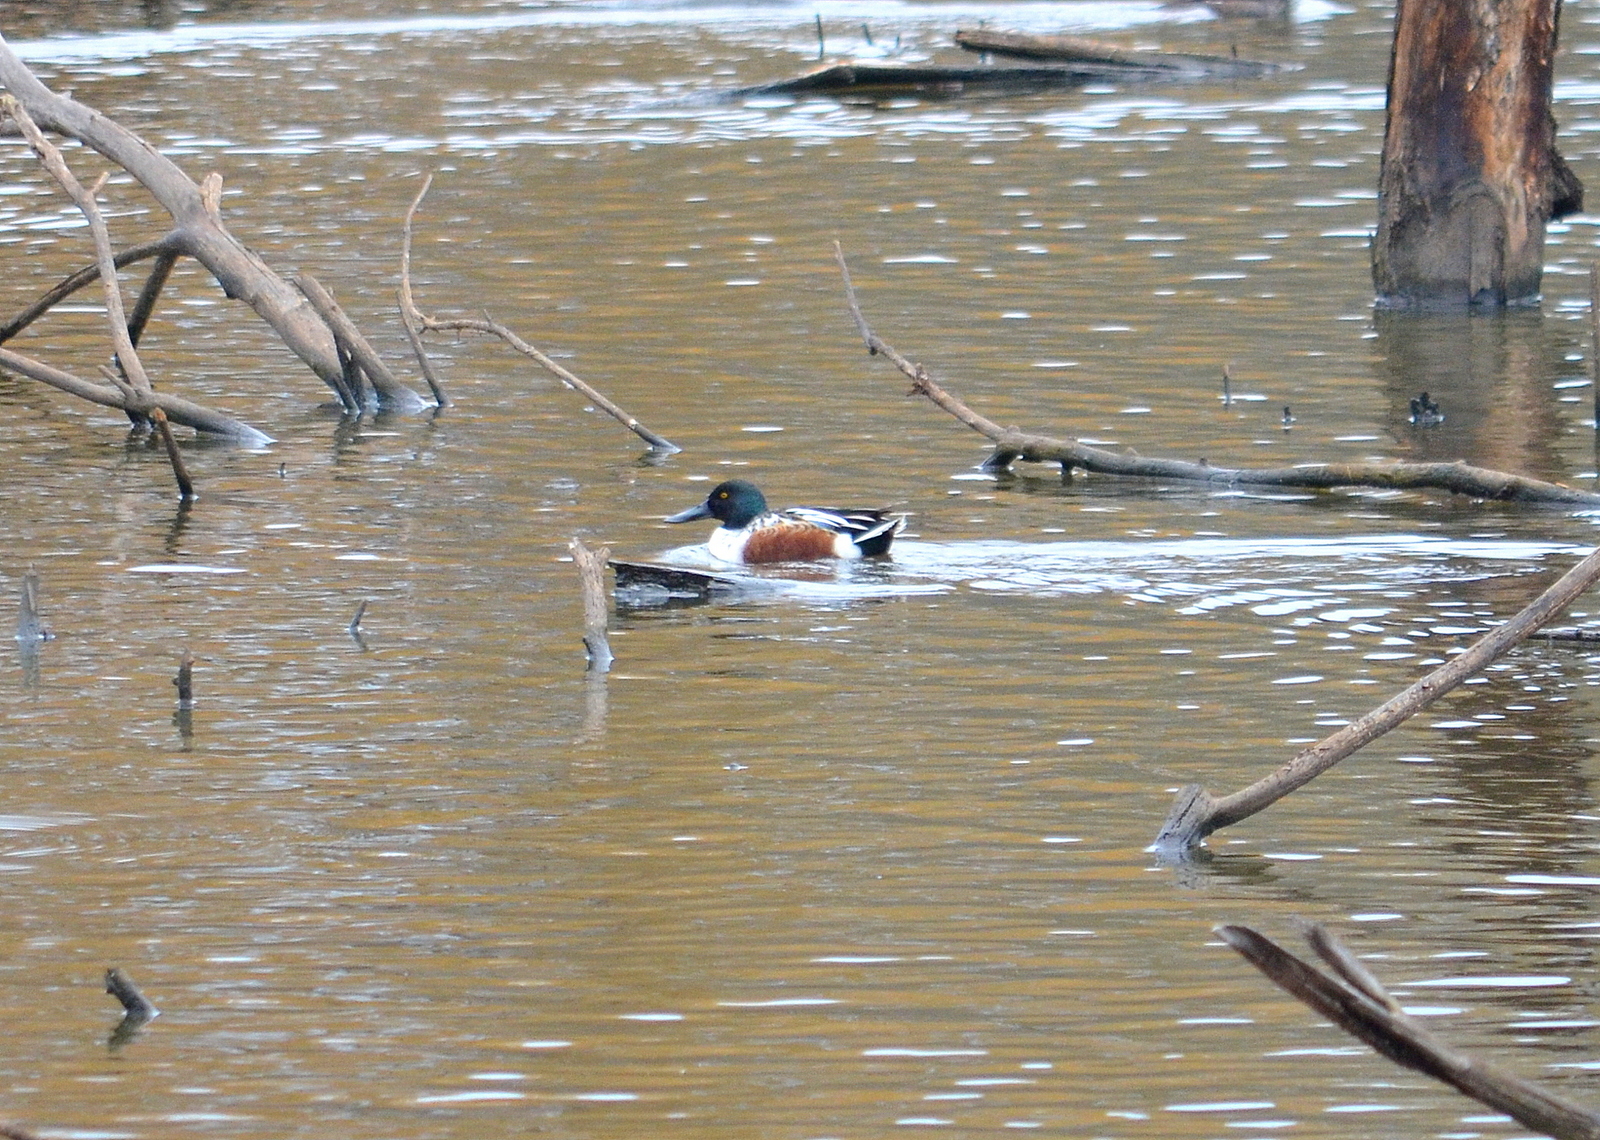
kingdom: Animalia
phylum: Chordata
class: Aves
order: Anseriformes
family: Anatidae
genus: Spatula
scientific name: Spatula clypeata
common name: Northern shoveler
